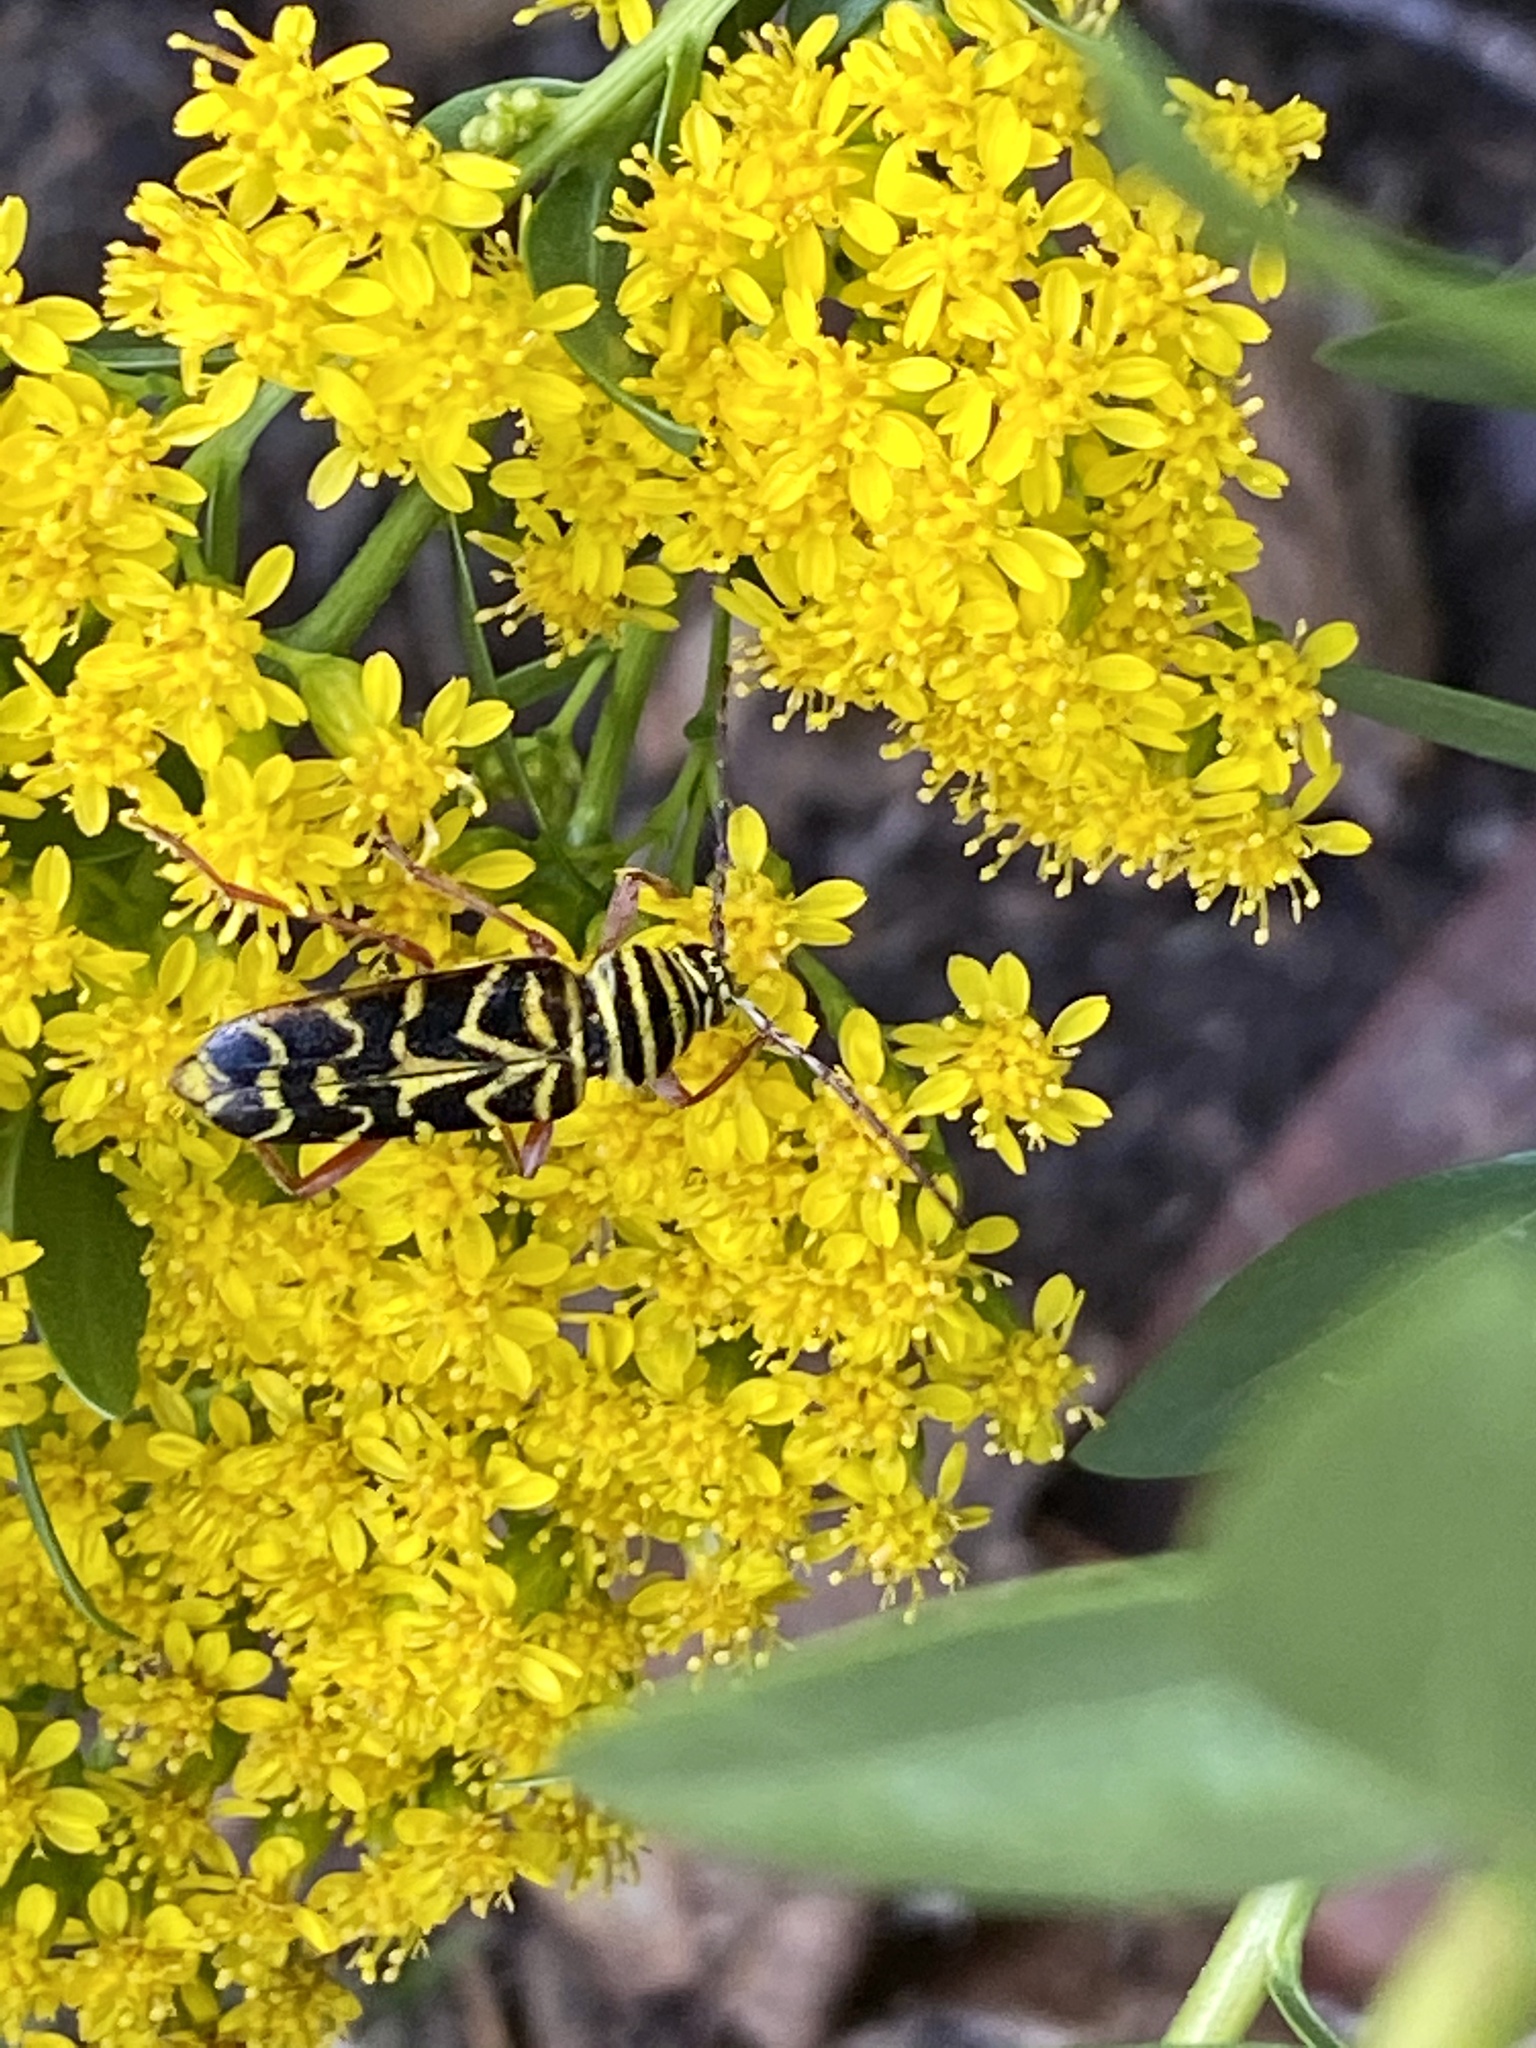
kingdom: Animalia
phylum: Arthropoda
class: Insecta
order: Coleoptera
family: Cerambycidae
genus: Megacyllene
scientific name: Megacyllene robiniae
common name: Locust borer
